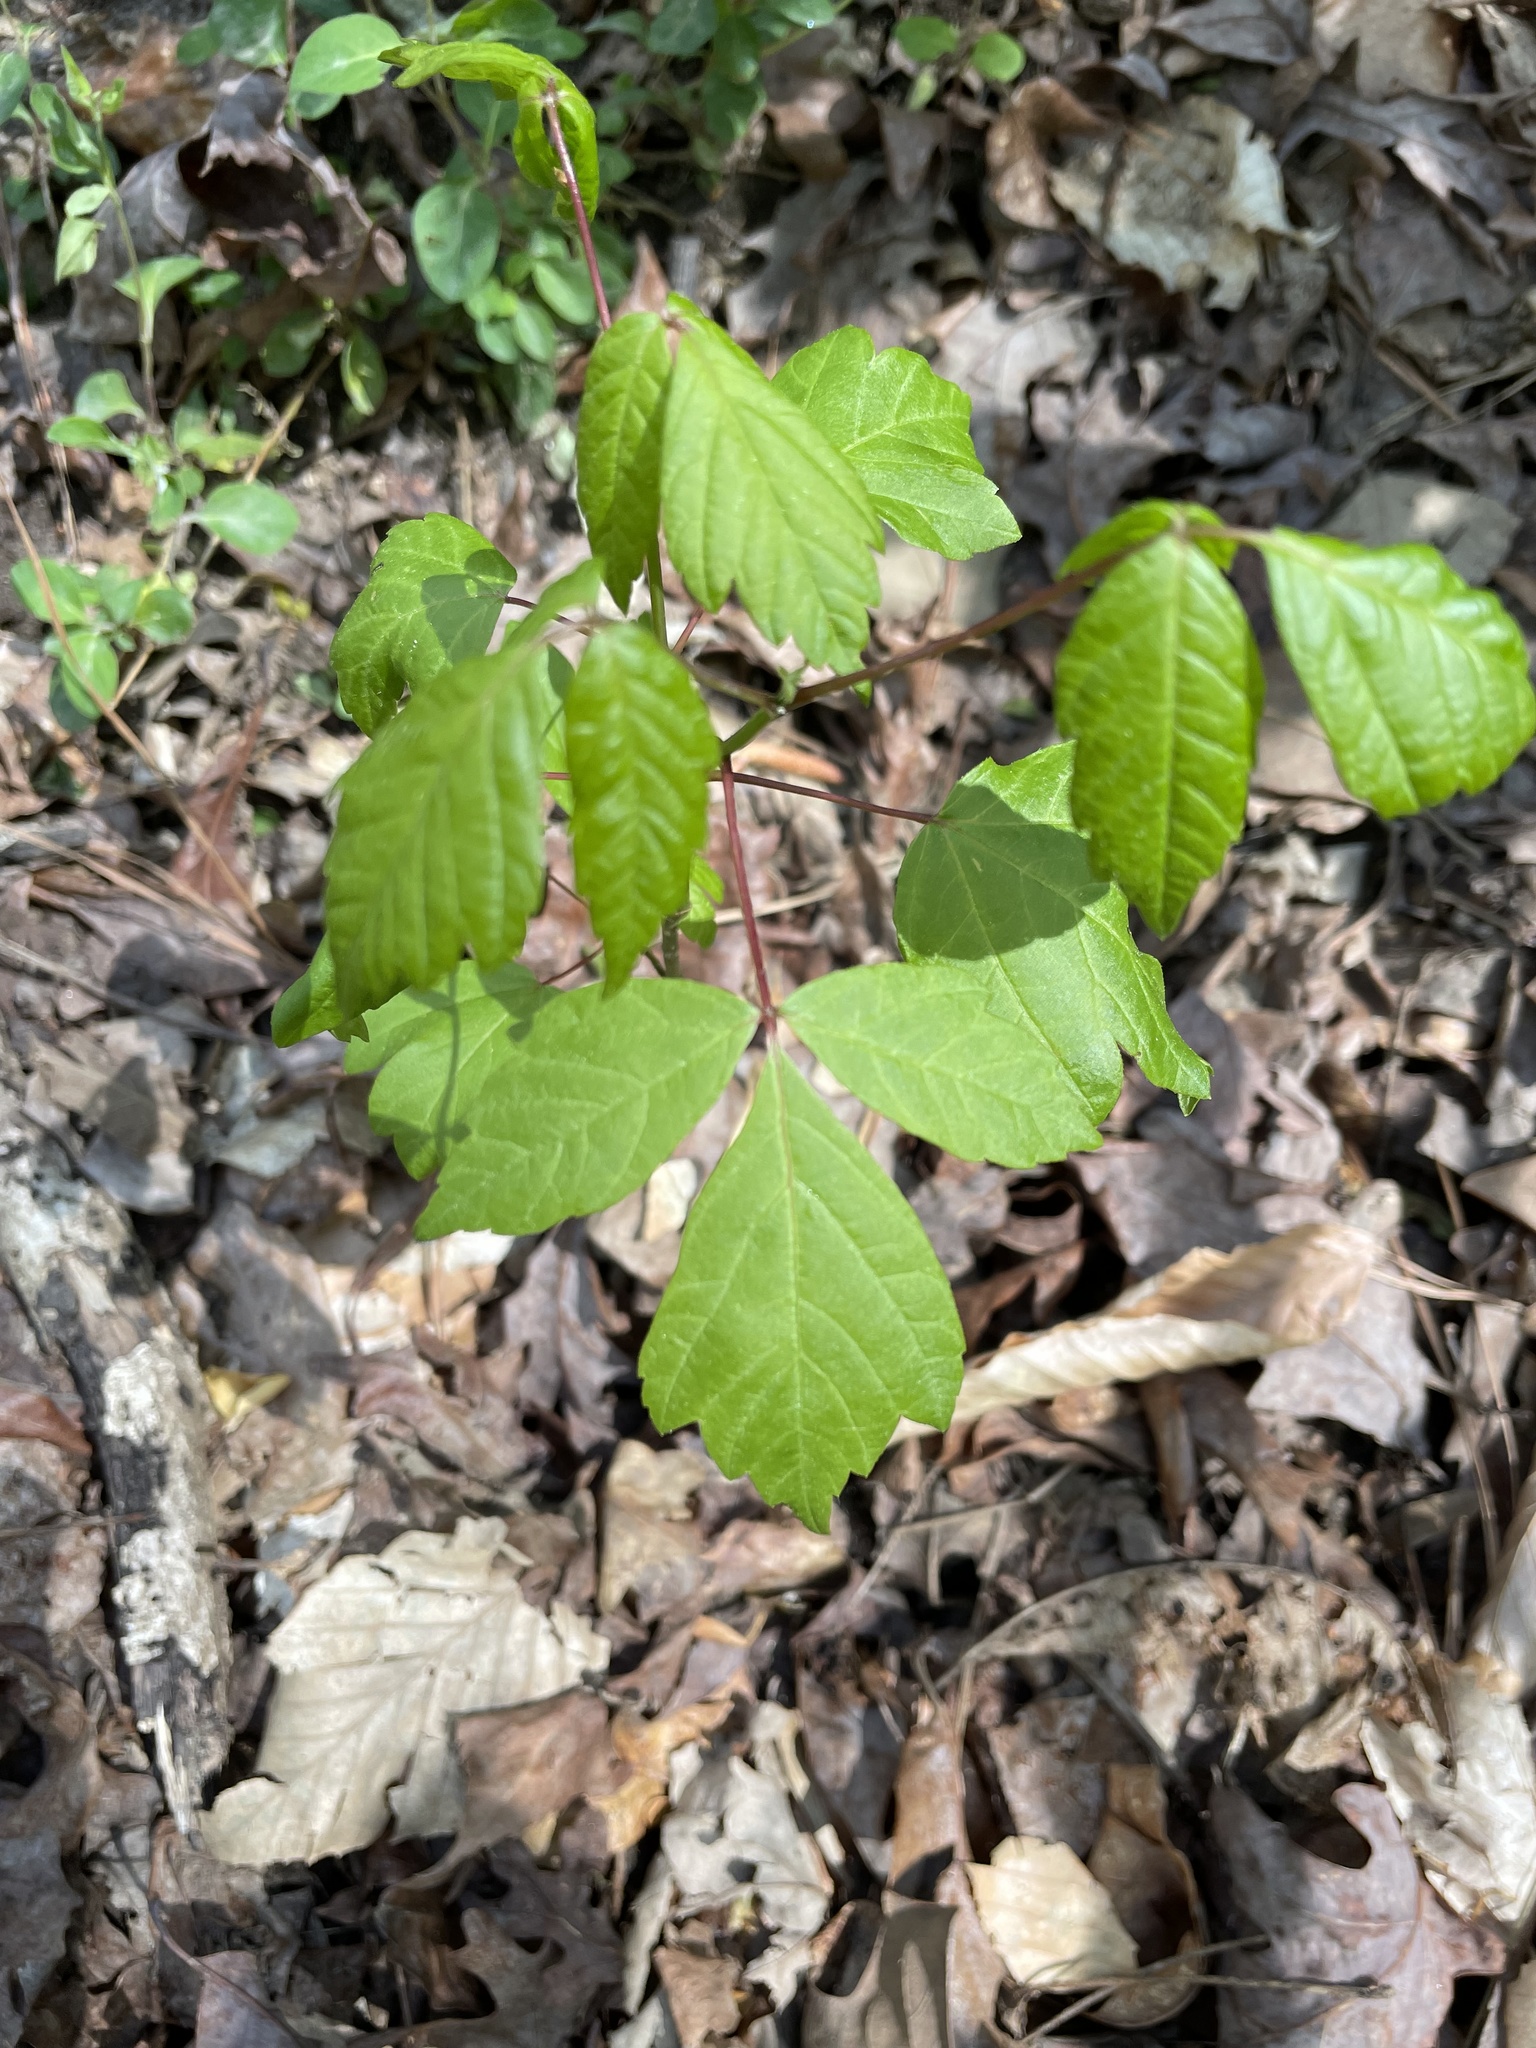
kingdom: Plantae
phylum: Tracheophyta
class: Magnoliopsida
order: Sapindales
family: Sapindaceae
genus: Acer
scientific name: Acer negundo
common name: Ashleaf maple
